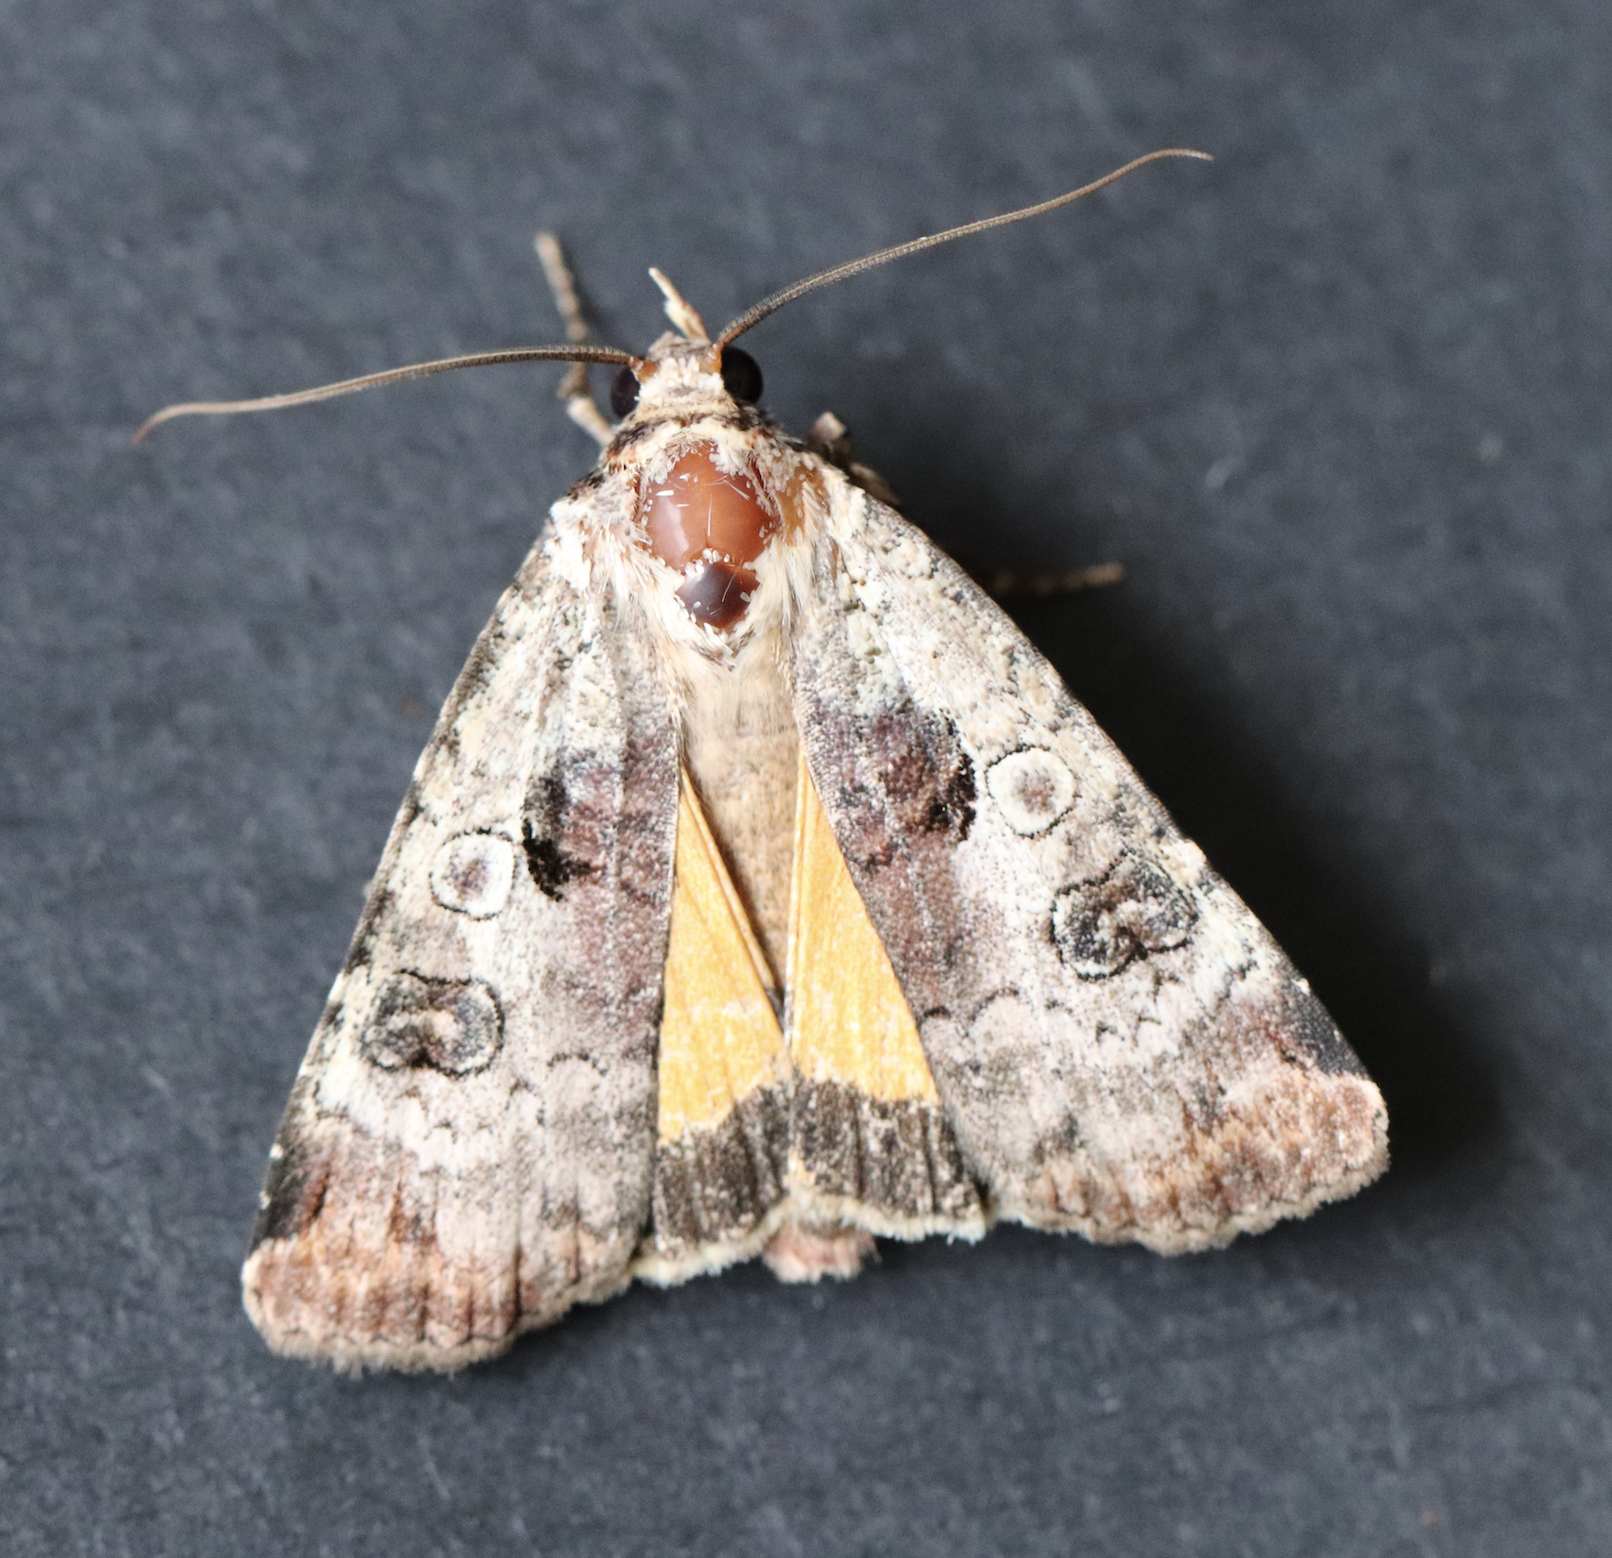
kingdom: Animalia
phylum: Arthropoda
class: Insecta
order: Lepidoptera
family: Noctuidae
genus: Epilecta
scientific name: Epilecta linogrisea
